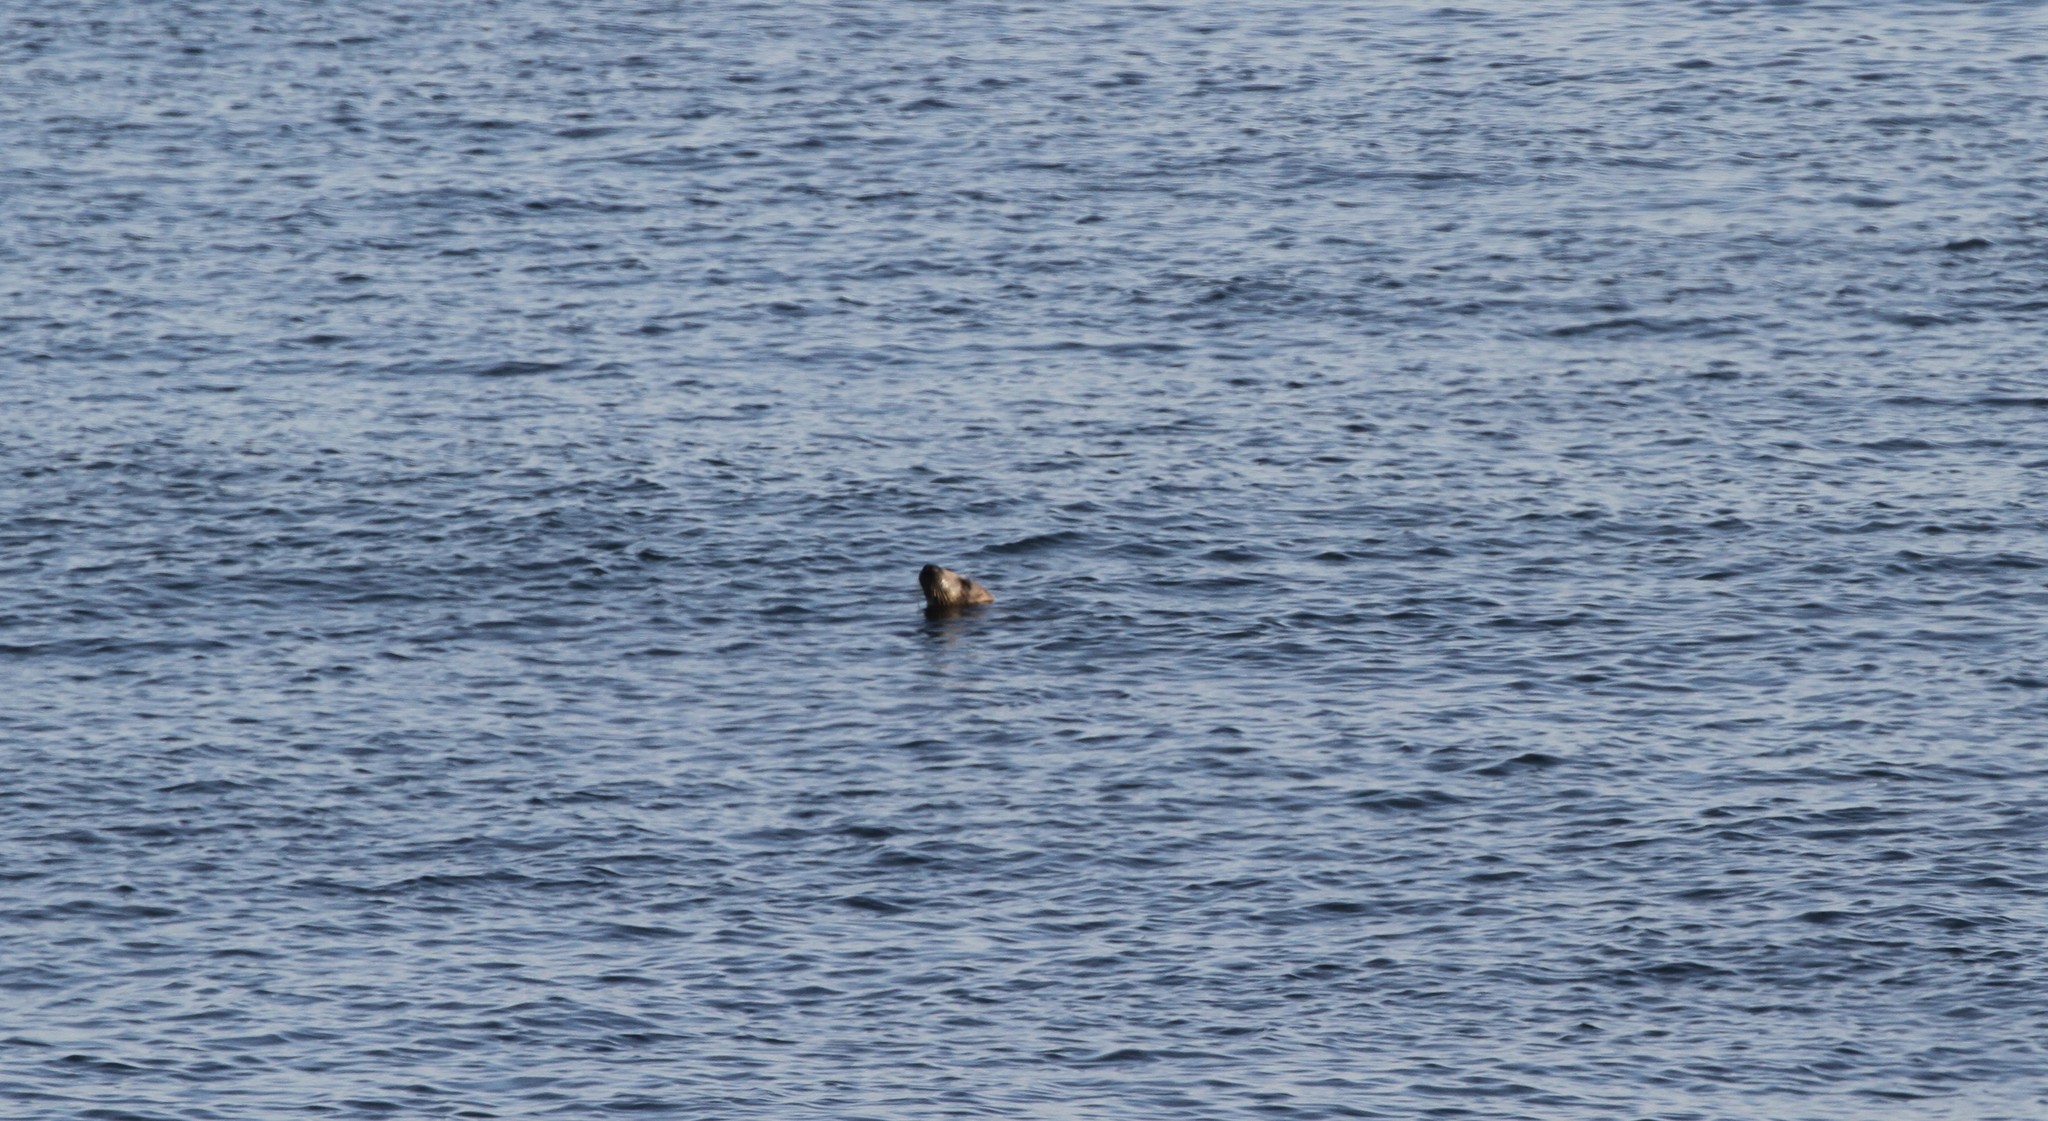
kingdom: Animalia
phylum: Chordata
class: Mammalia
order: Carnivora
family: Phocidae
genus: Halichoerus
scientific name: Halichoerus grypus
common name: Grey seal
